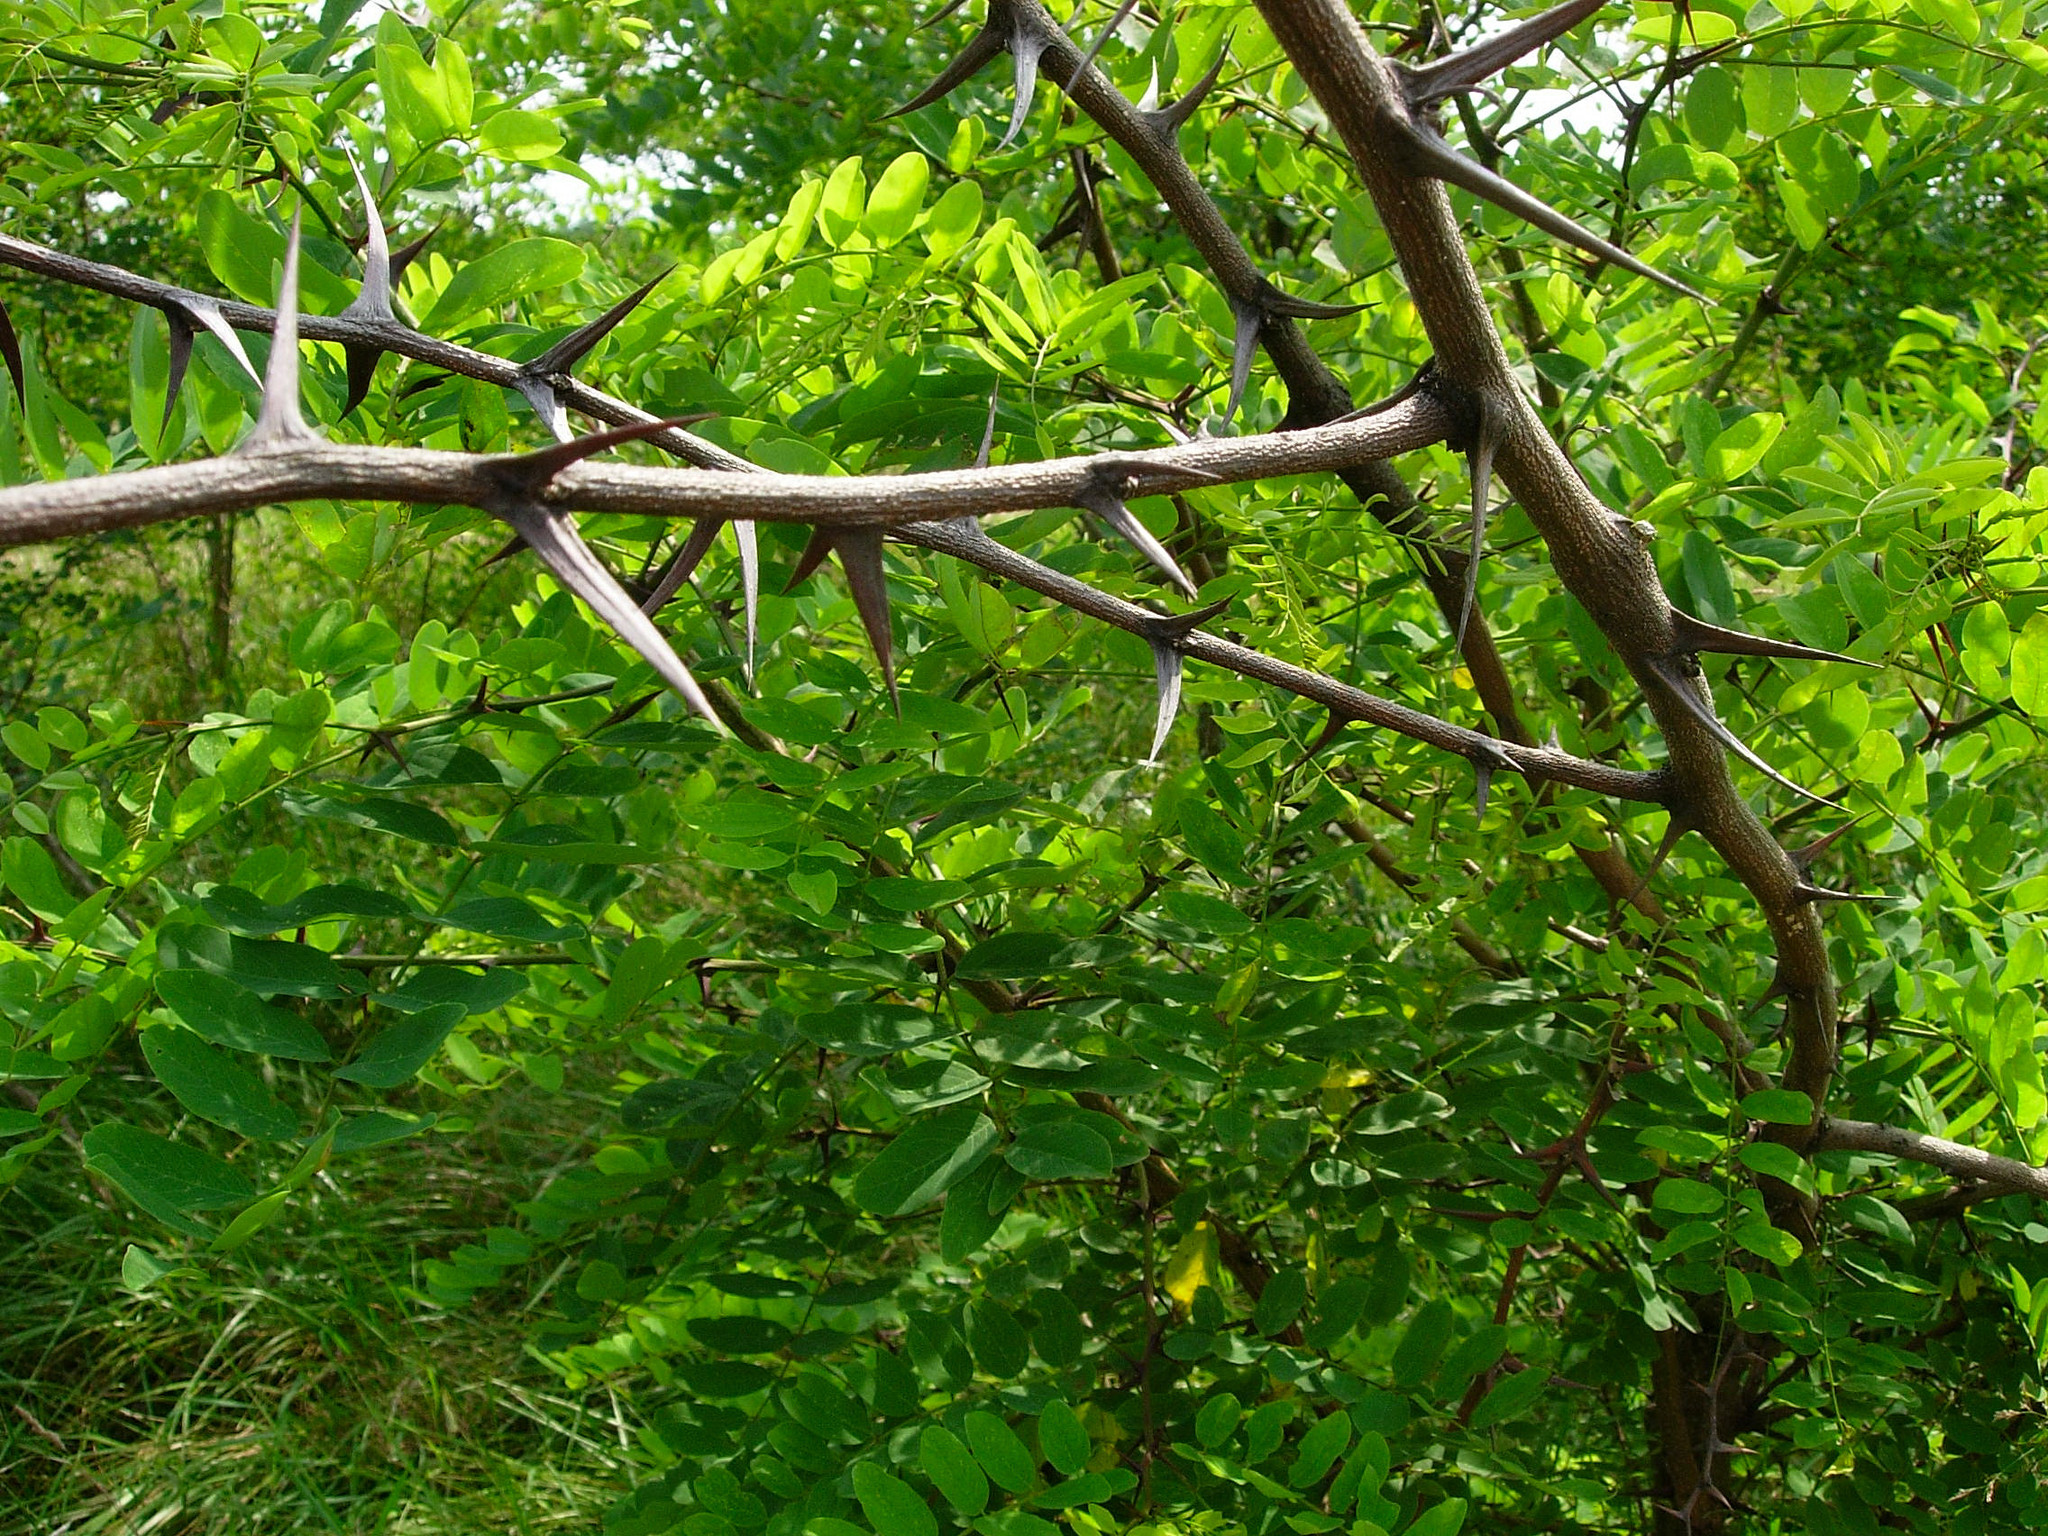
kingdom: Plantae
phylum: Tracheophyta
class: Magnoliopsida
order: Fabales
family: Fabaceae
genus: Robinia
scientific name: Robinia pseudoacacia
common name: Black locust
